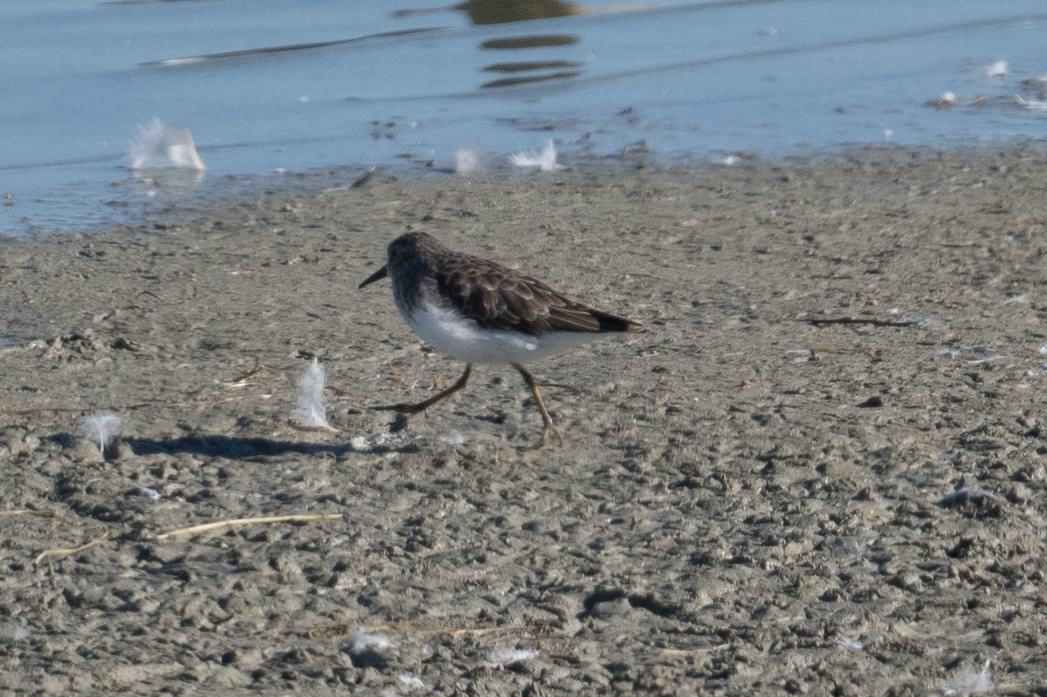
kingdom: Animalia
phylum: Chordata
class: Aves
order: Charadriiformes
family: Scolopacidae
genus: Calidris
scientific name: Calidris minutilla
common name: Least sandpiper
